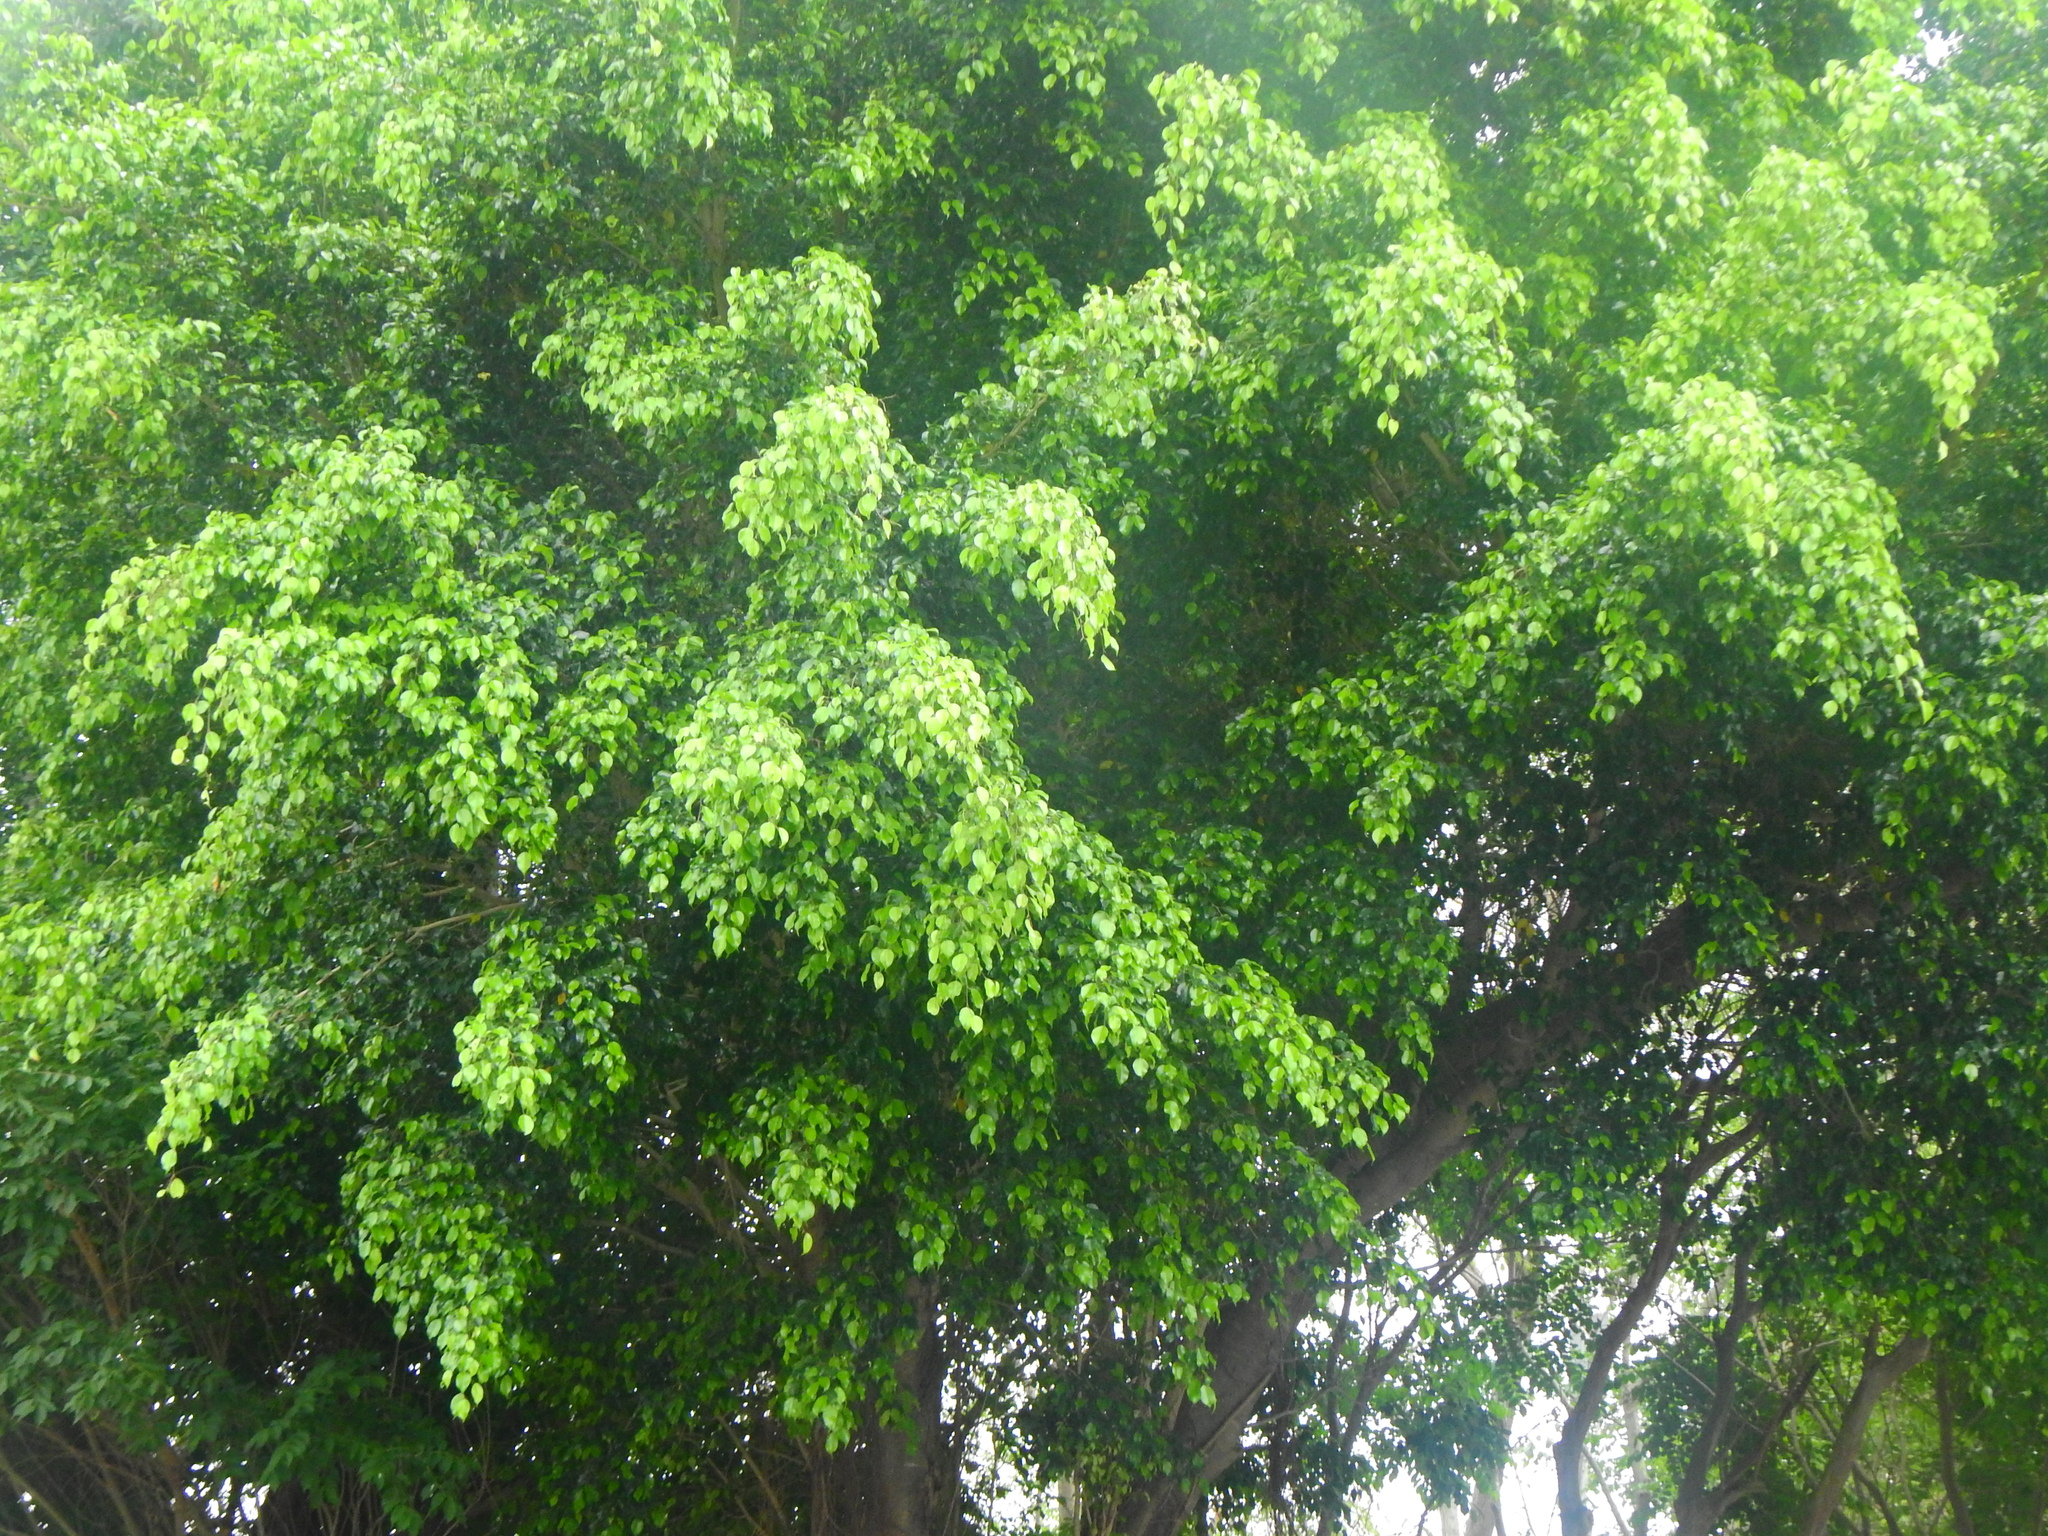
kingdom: Plantae
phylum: Tracheophyta
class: Magnoliopsida
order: Rosales
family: Moraceae
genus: Ficus
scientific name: Ficus benjamina
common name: Weeping fig
